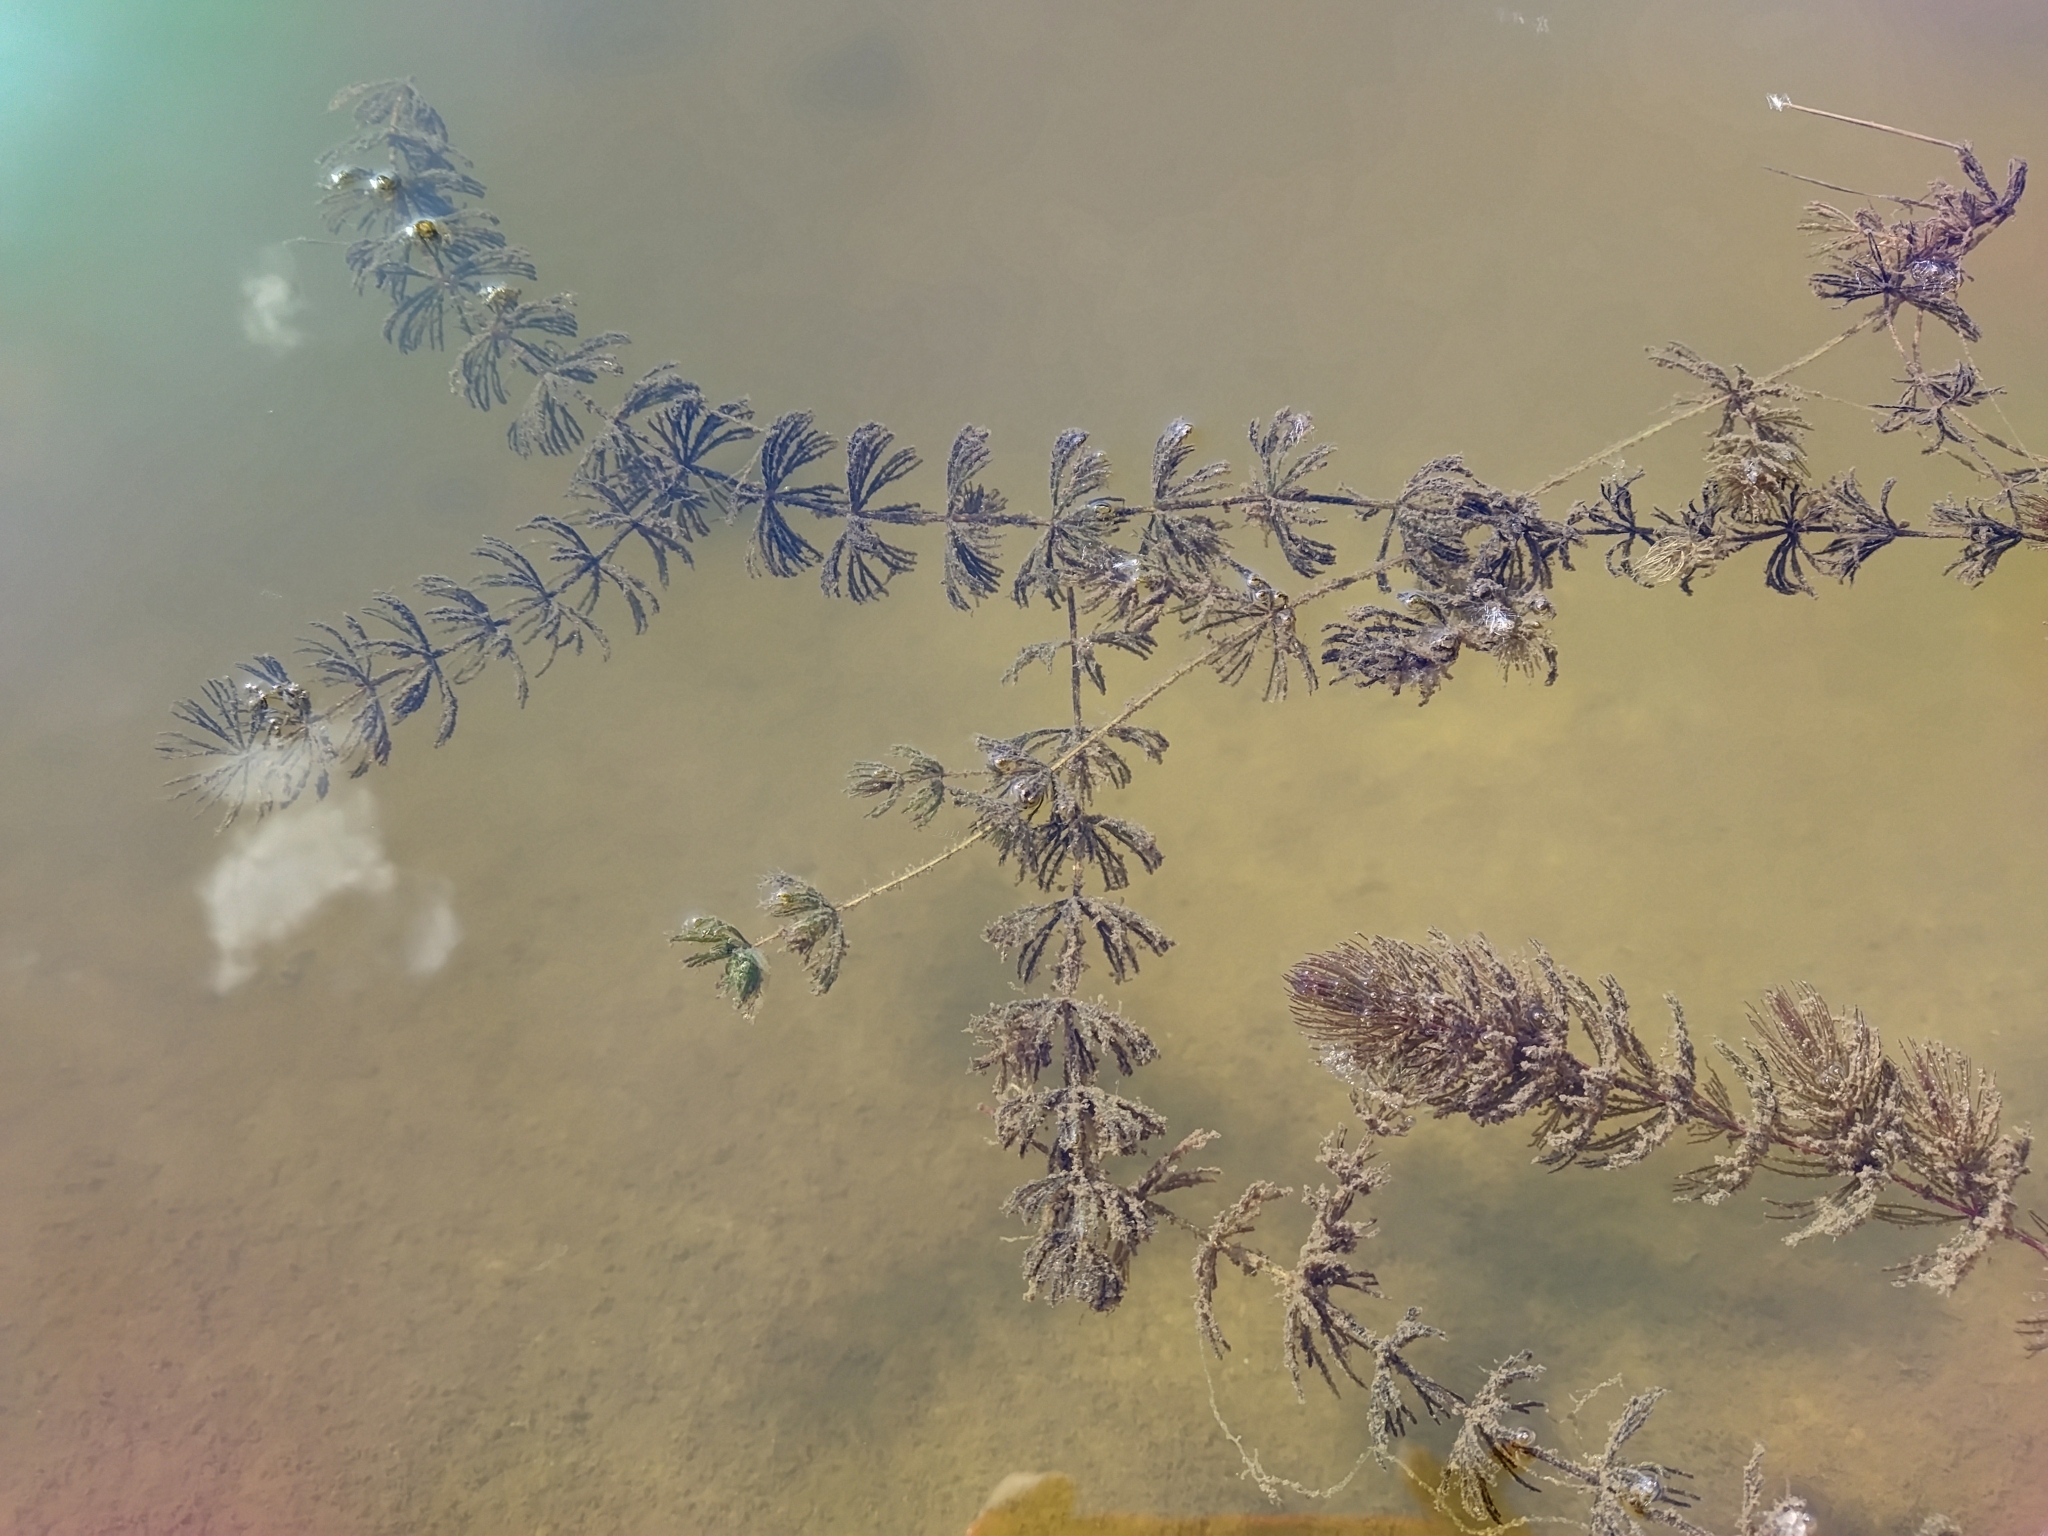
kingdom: Plantae
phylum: Tracheophyta
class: Magnoliopsida
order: Ceratophyllales
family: Ceratophyllaceae
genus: Ceratophyllum
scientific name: Ceratophyllum demersum
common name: Rigid hornwort
